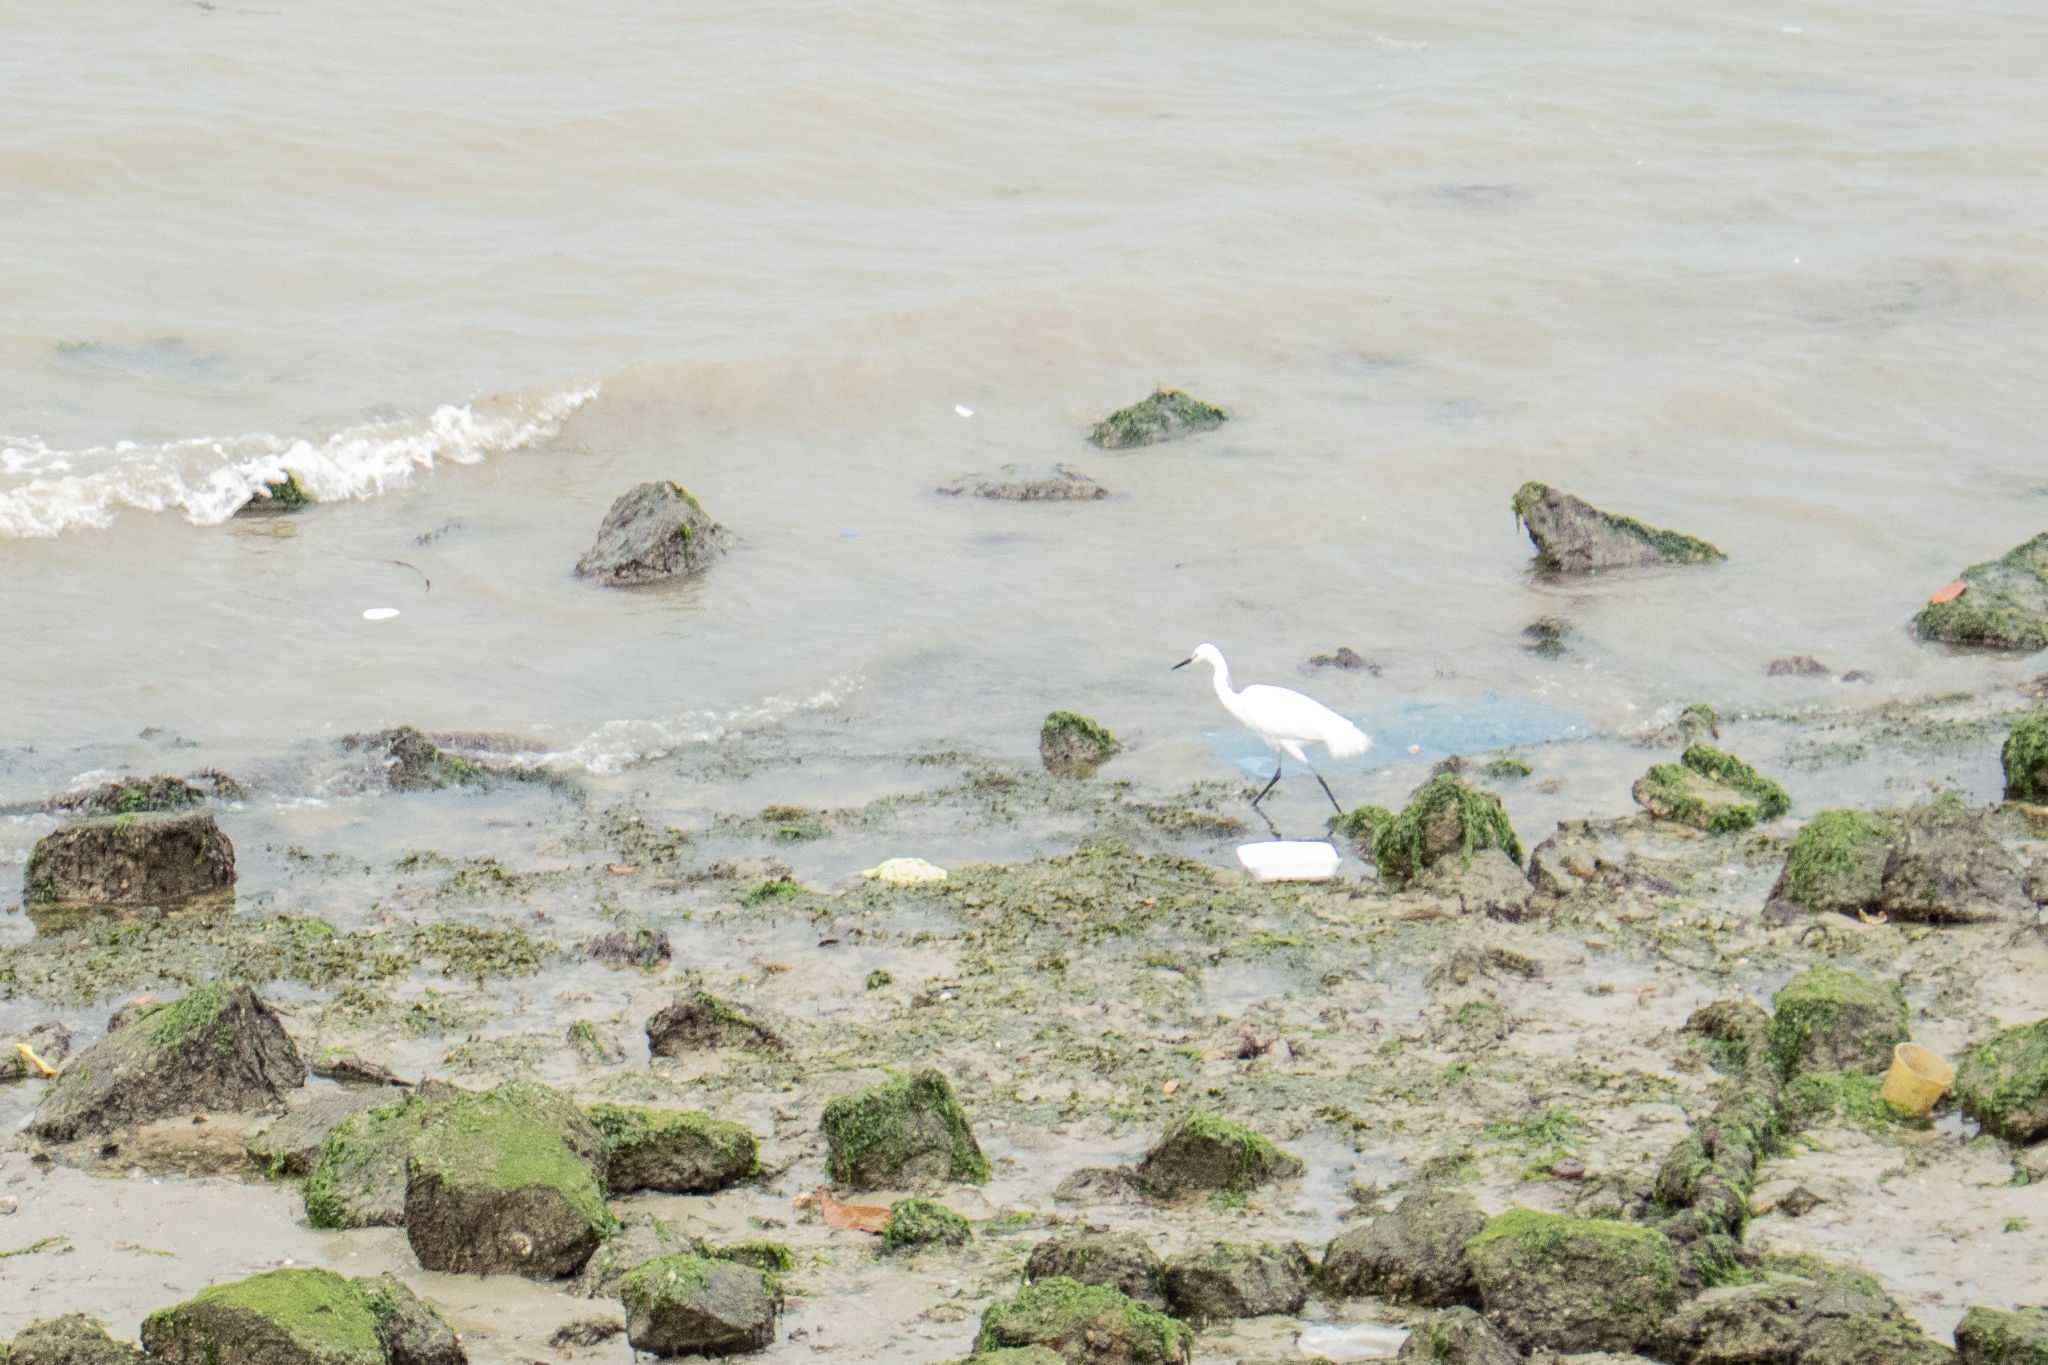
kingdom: Animalia
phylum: Chordata
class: Aves
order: Pelecaniformes
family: Ardeidae
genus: Egretta
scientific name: Egretta garzetta
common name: Little egret
